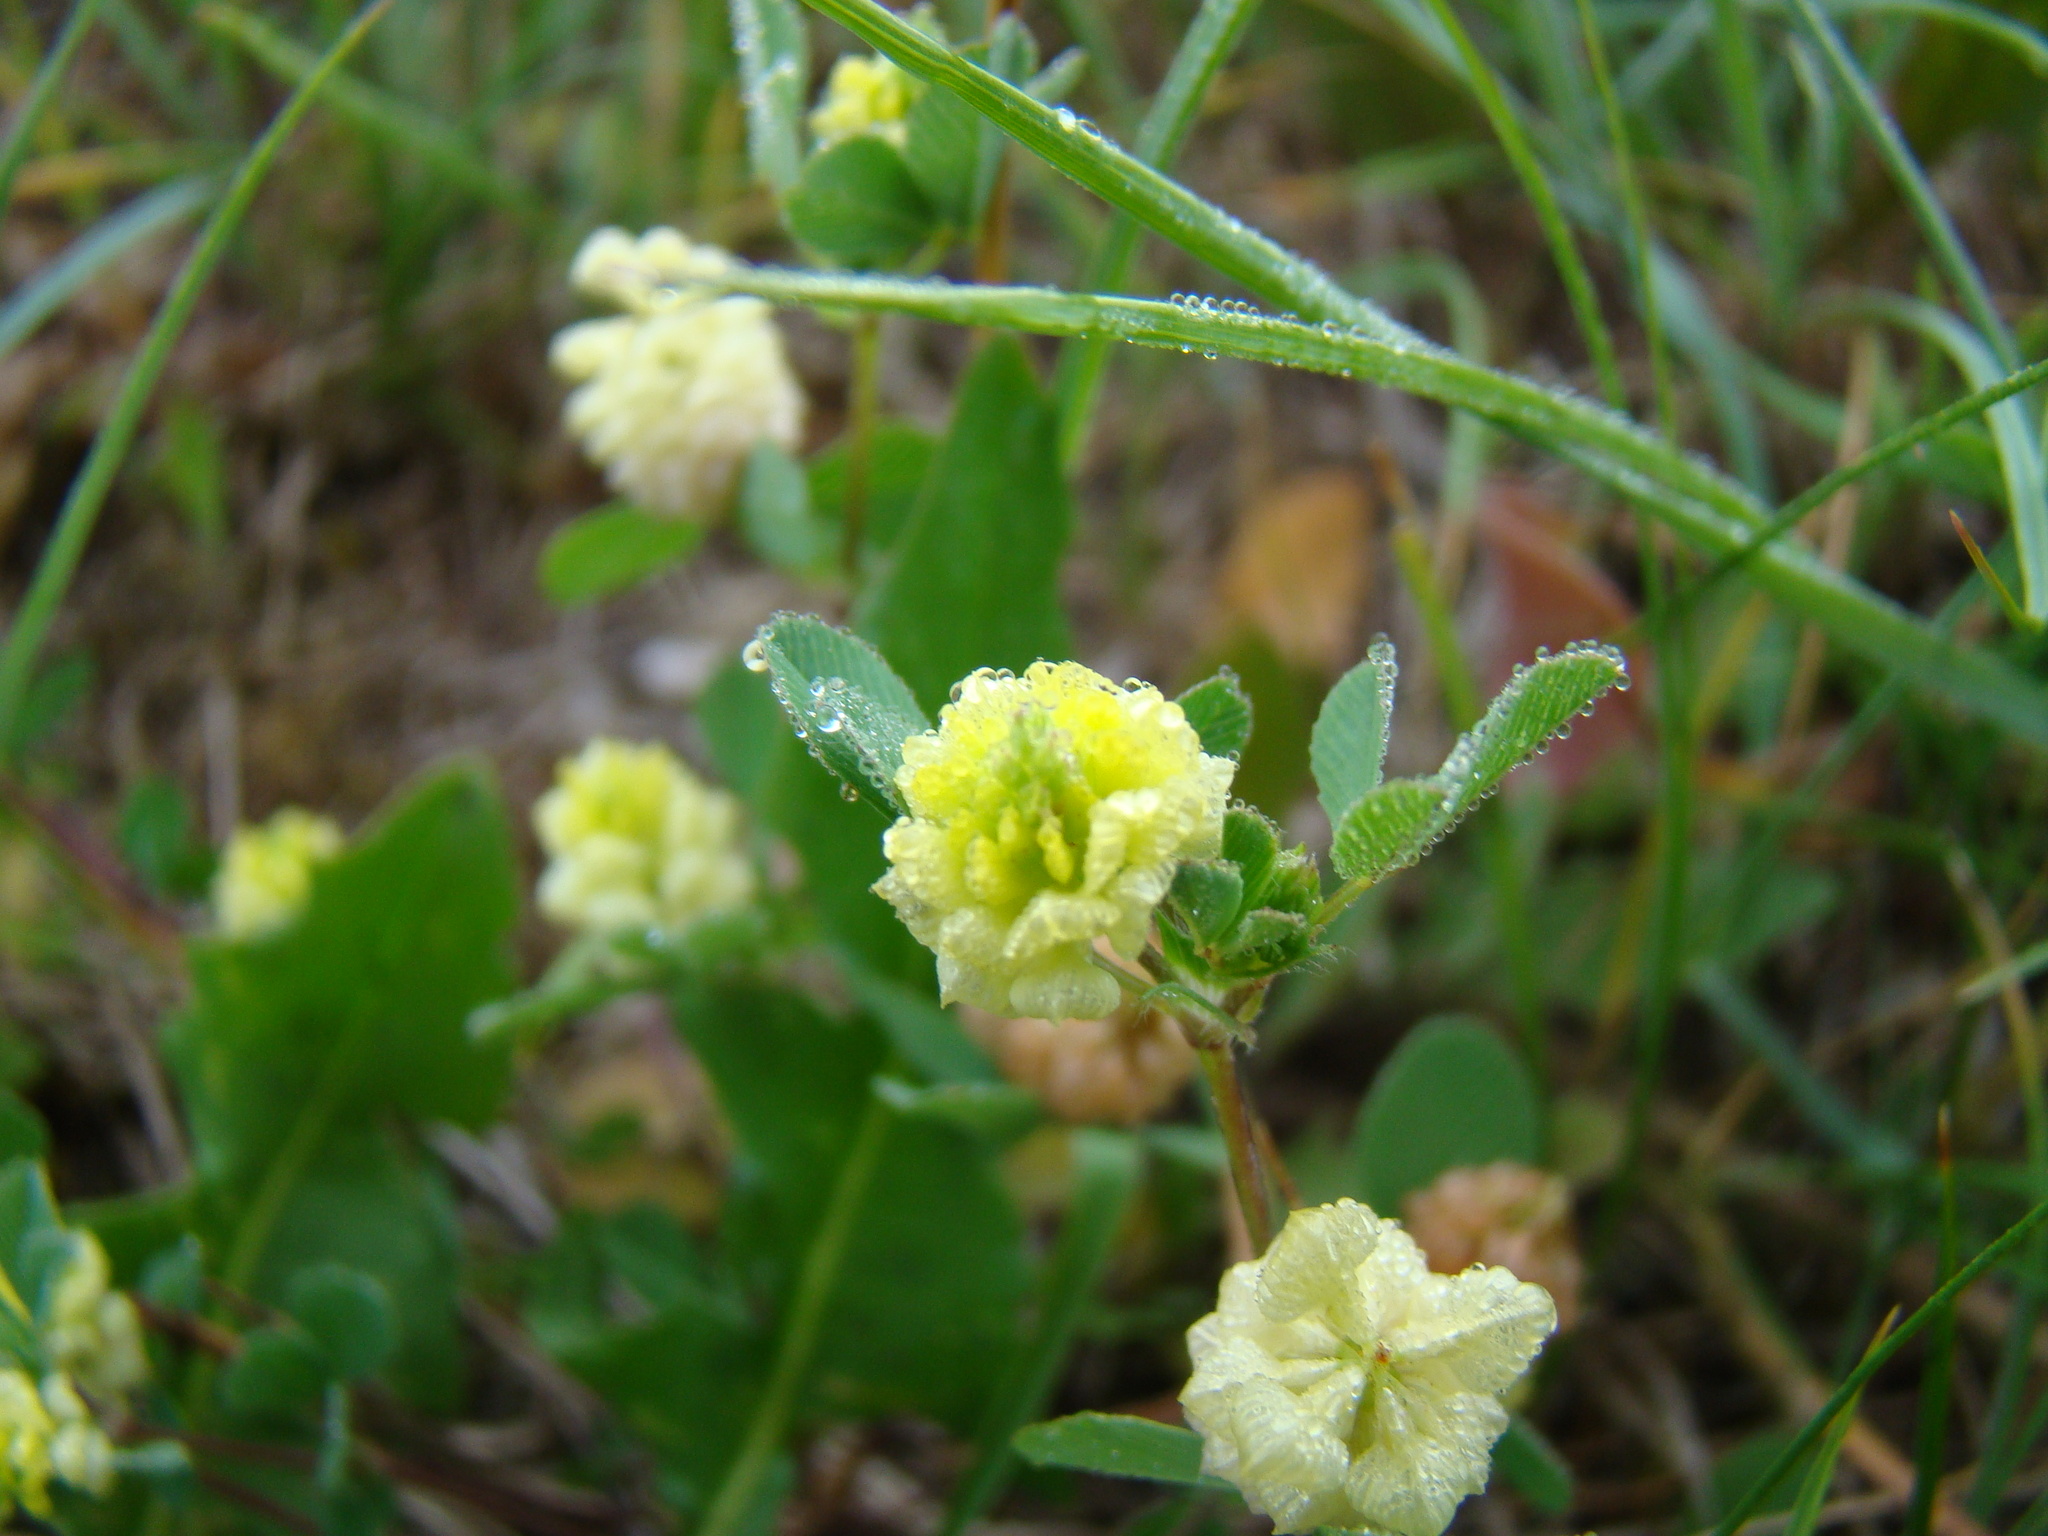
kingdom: Plantae
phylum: Tracheophyta
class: Magnoliopsida
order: Fabales
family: Fabaceae
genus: Trifolium
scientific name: Trifolium campestre
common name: Field clover
